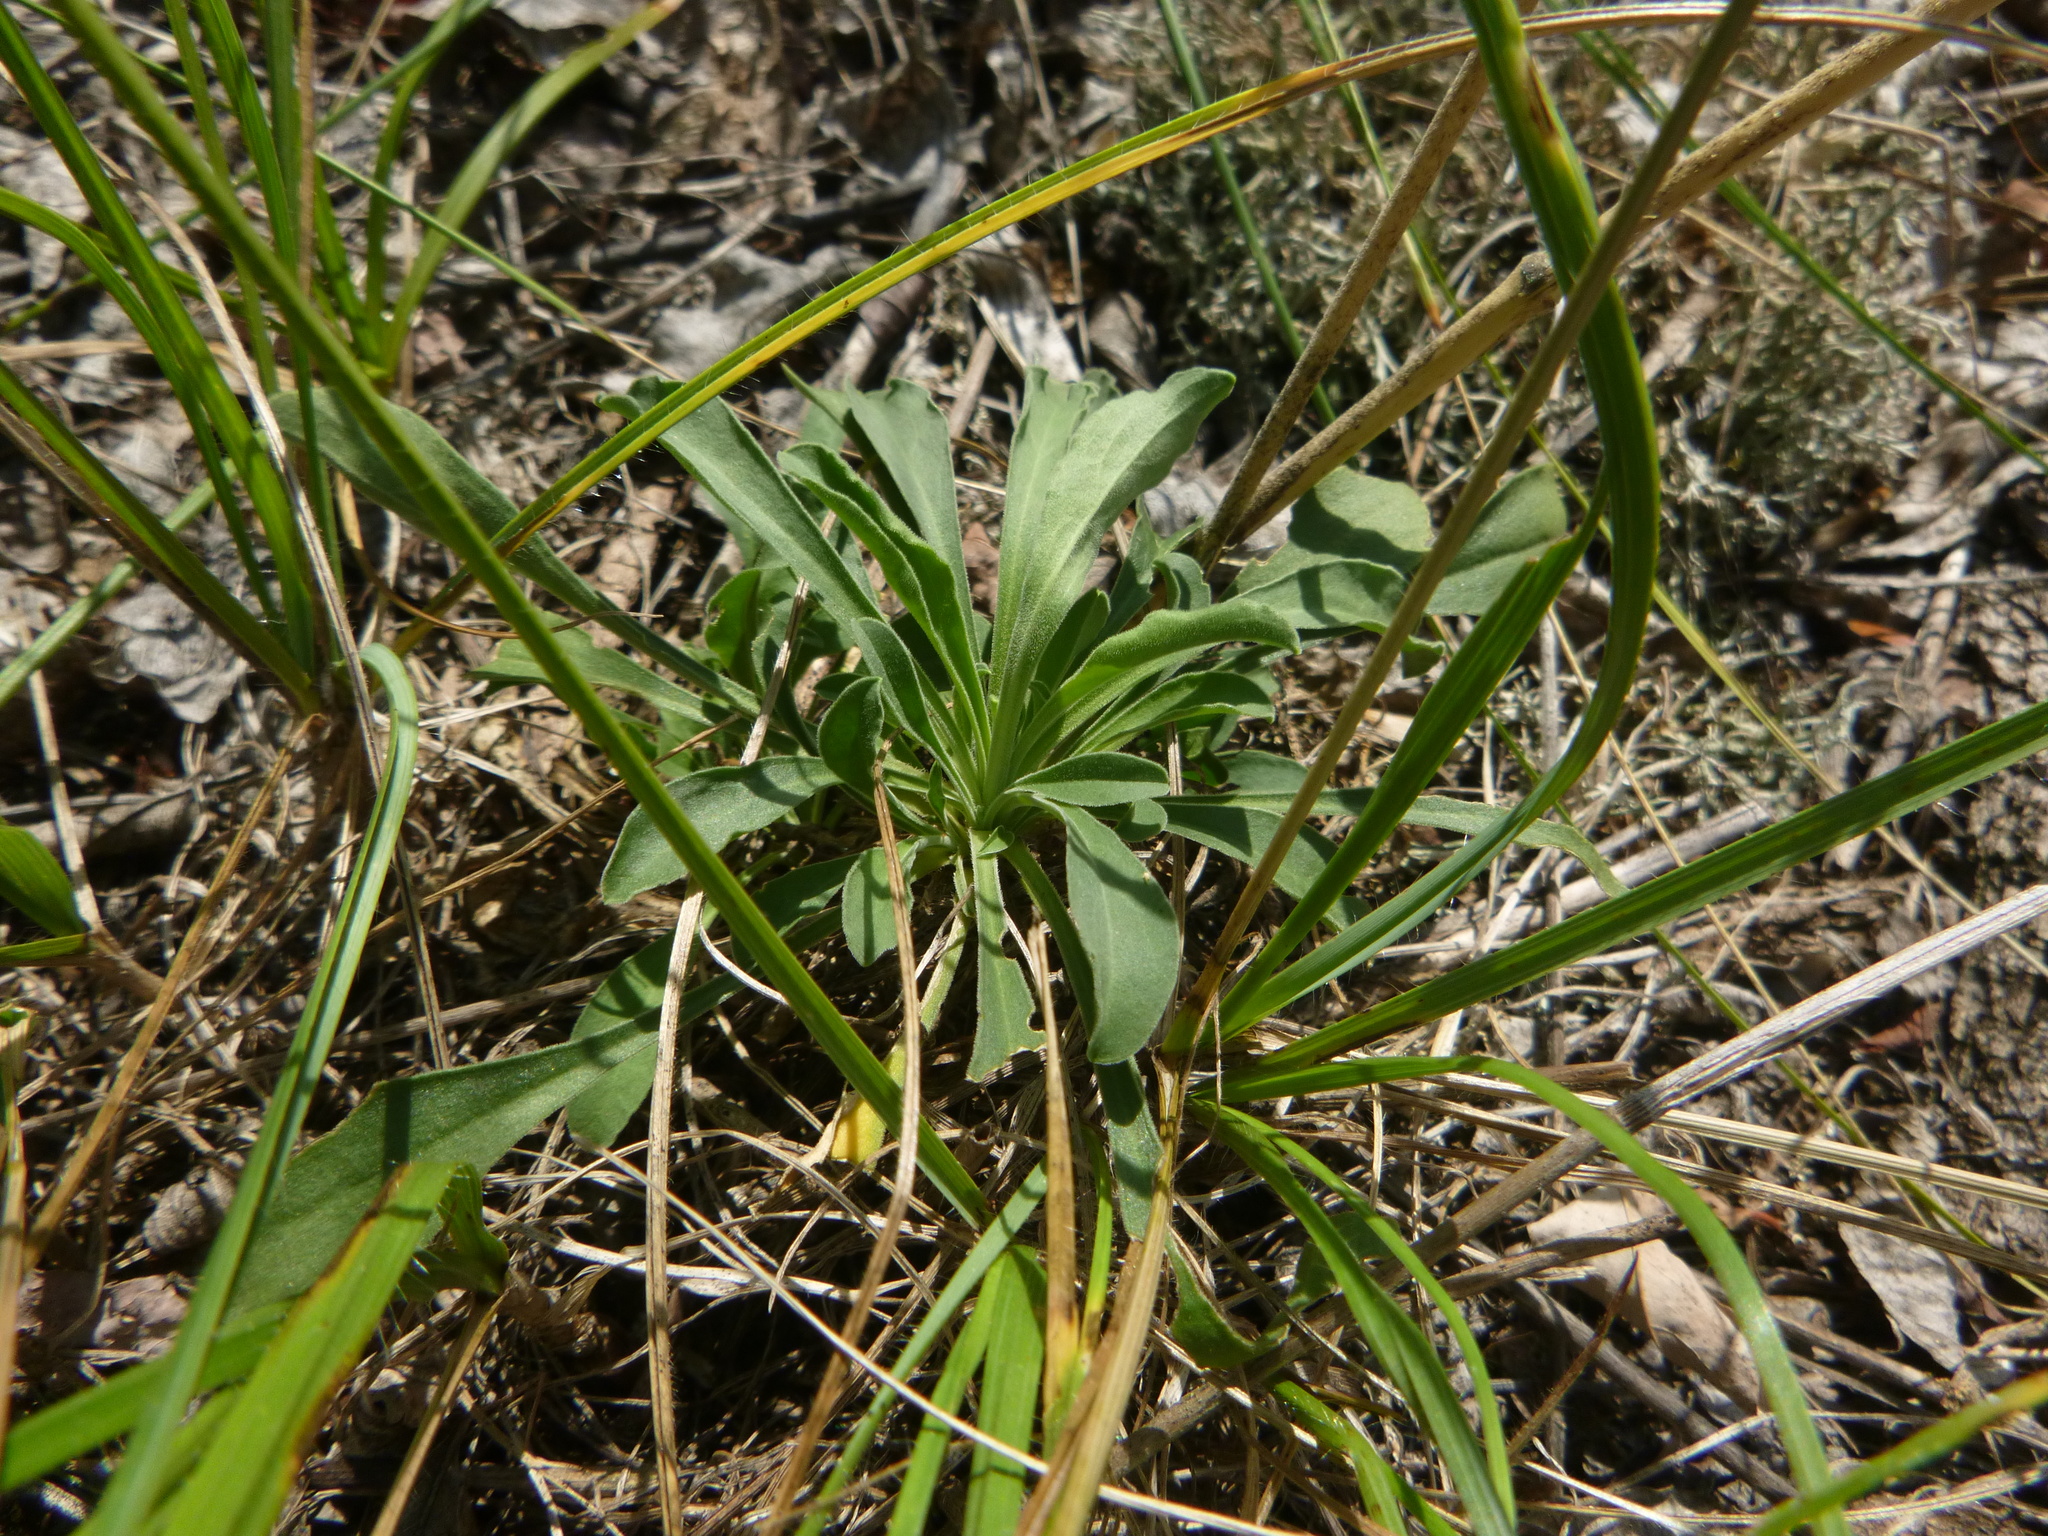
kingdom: Plantae
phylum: Tracheophyta
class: Magnoliopsida
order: Caryophyllales
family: Caryophyllaceae
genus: Silene
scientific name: Silene otites
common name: Spanish catchfly
